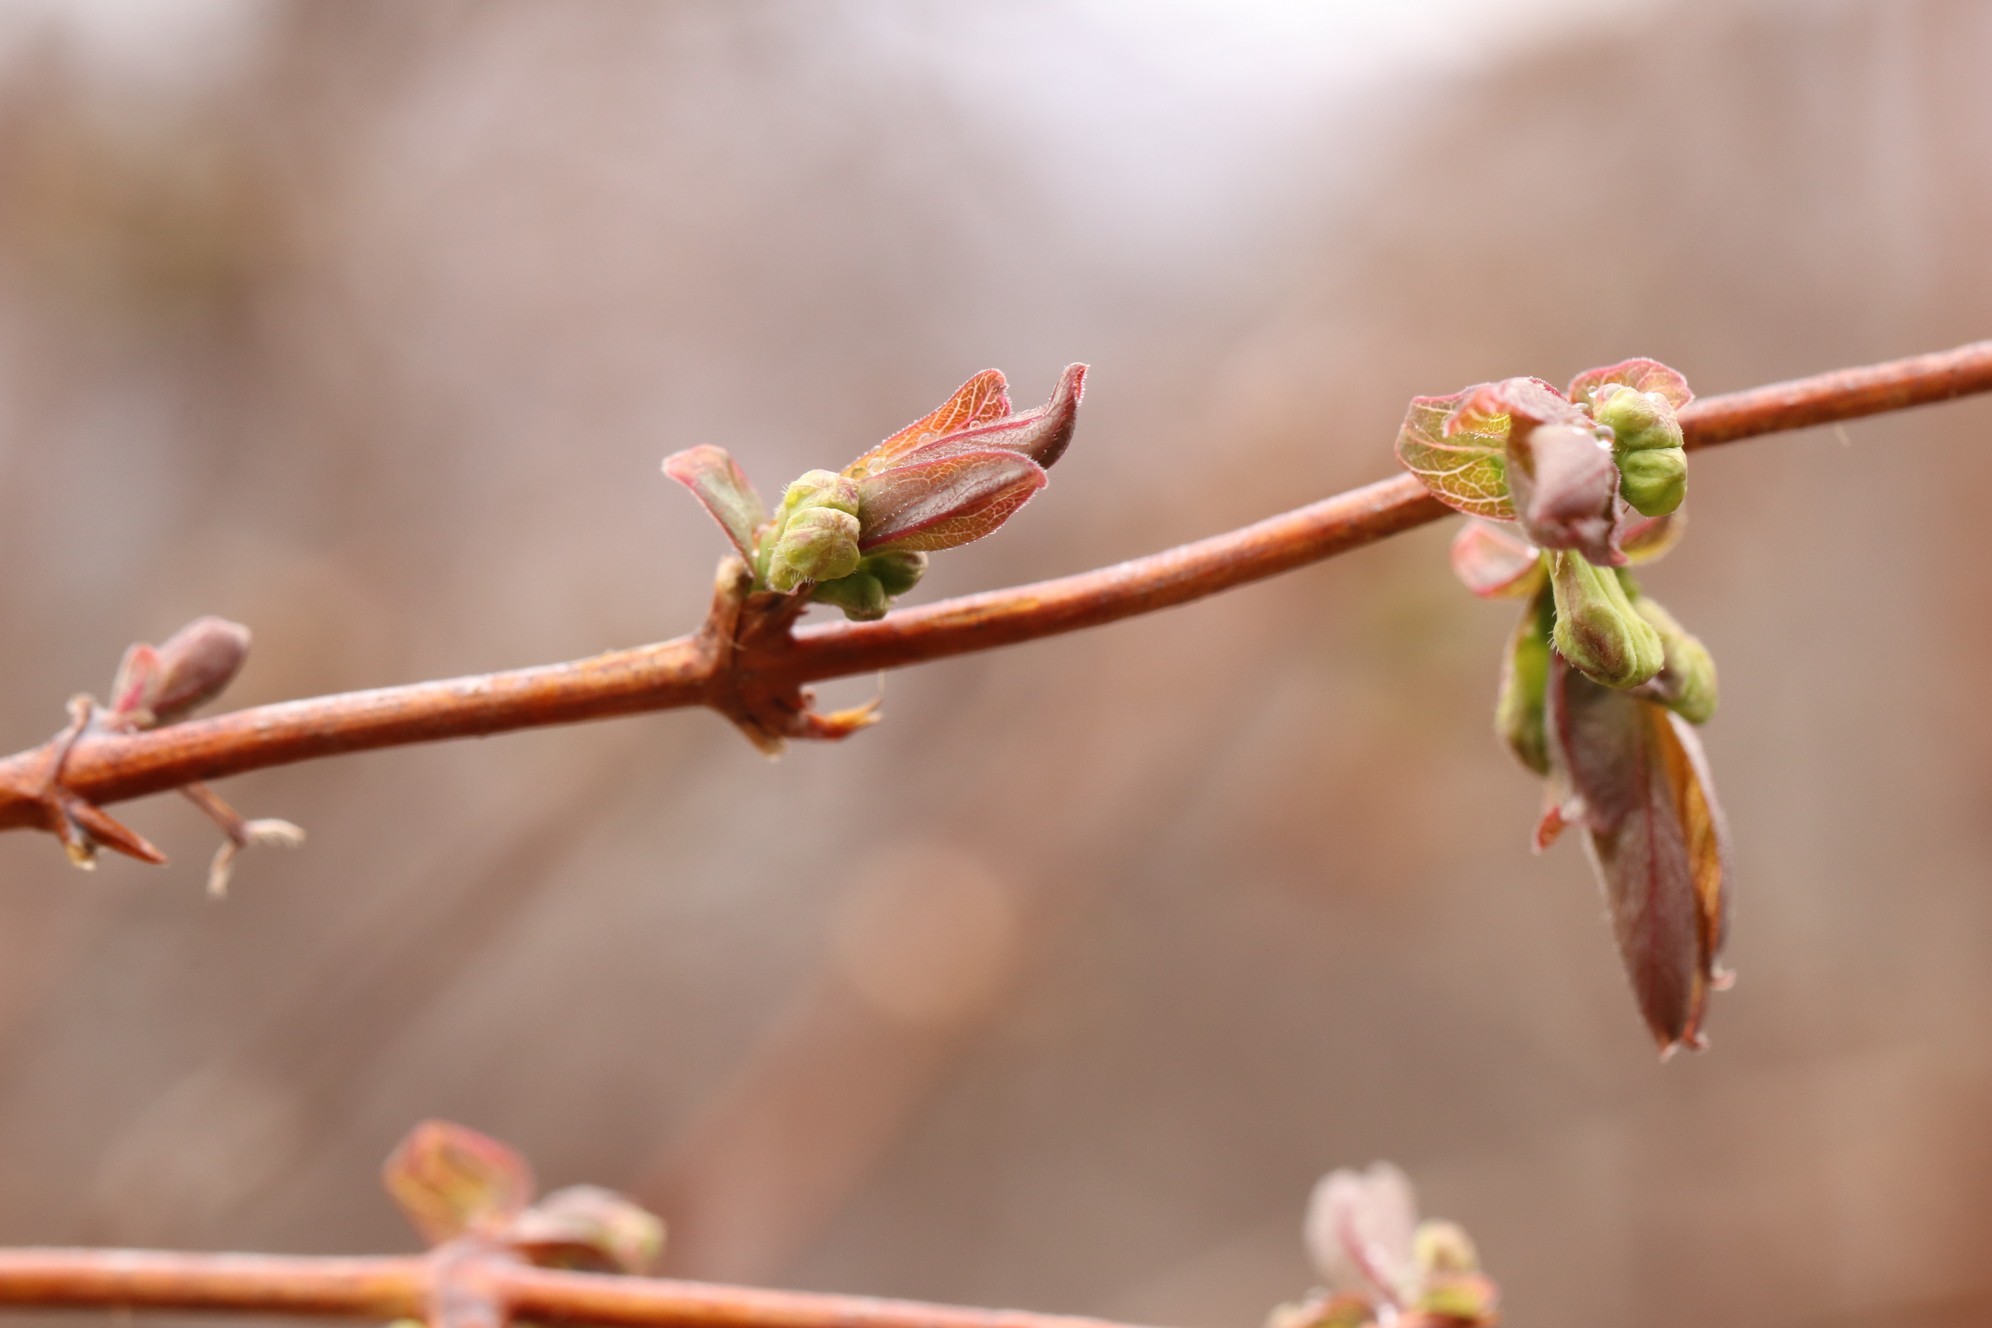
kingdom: Plantae
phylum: Tracheophyta
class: Magnoliopsida
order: Dipsacales
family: Caprifoliaceae
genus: Lonicera
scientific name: Lonicera caerulea
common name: Blue honeysuckle
